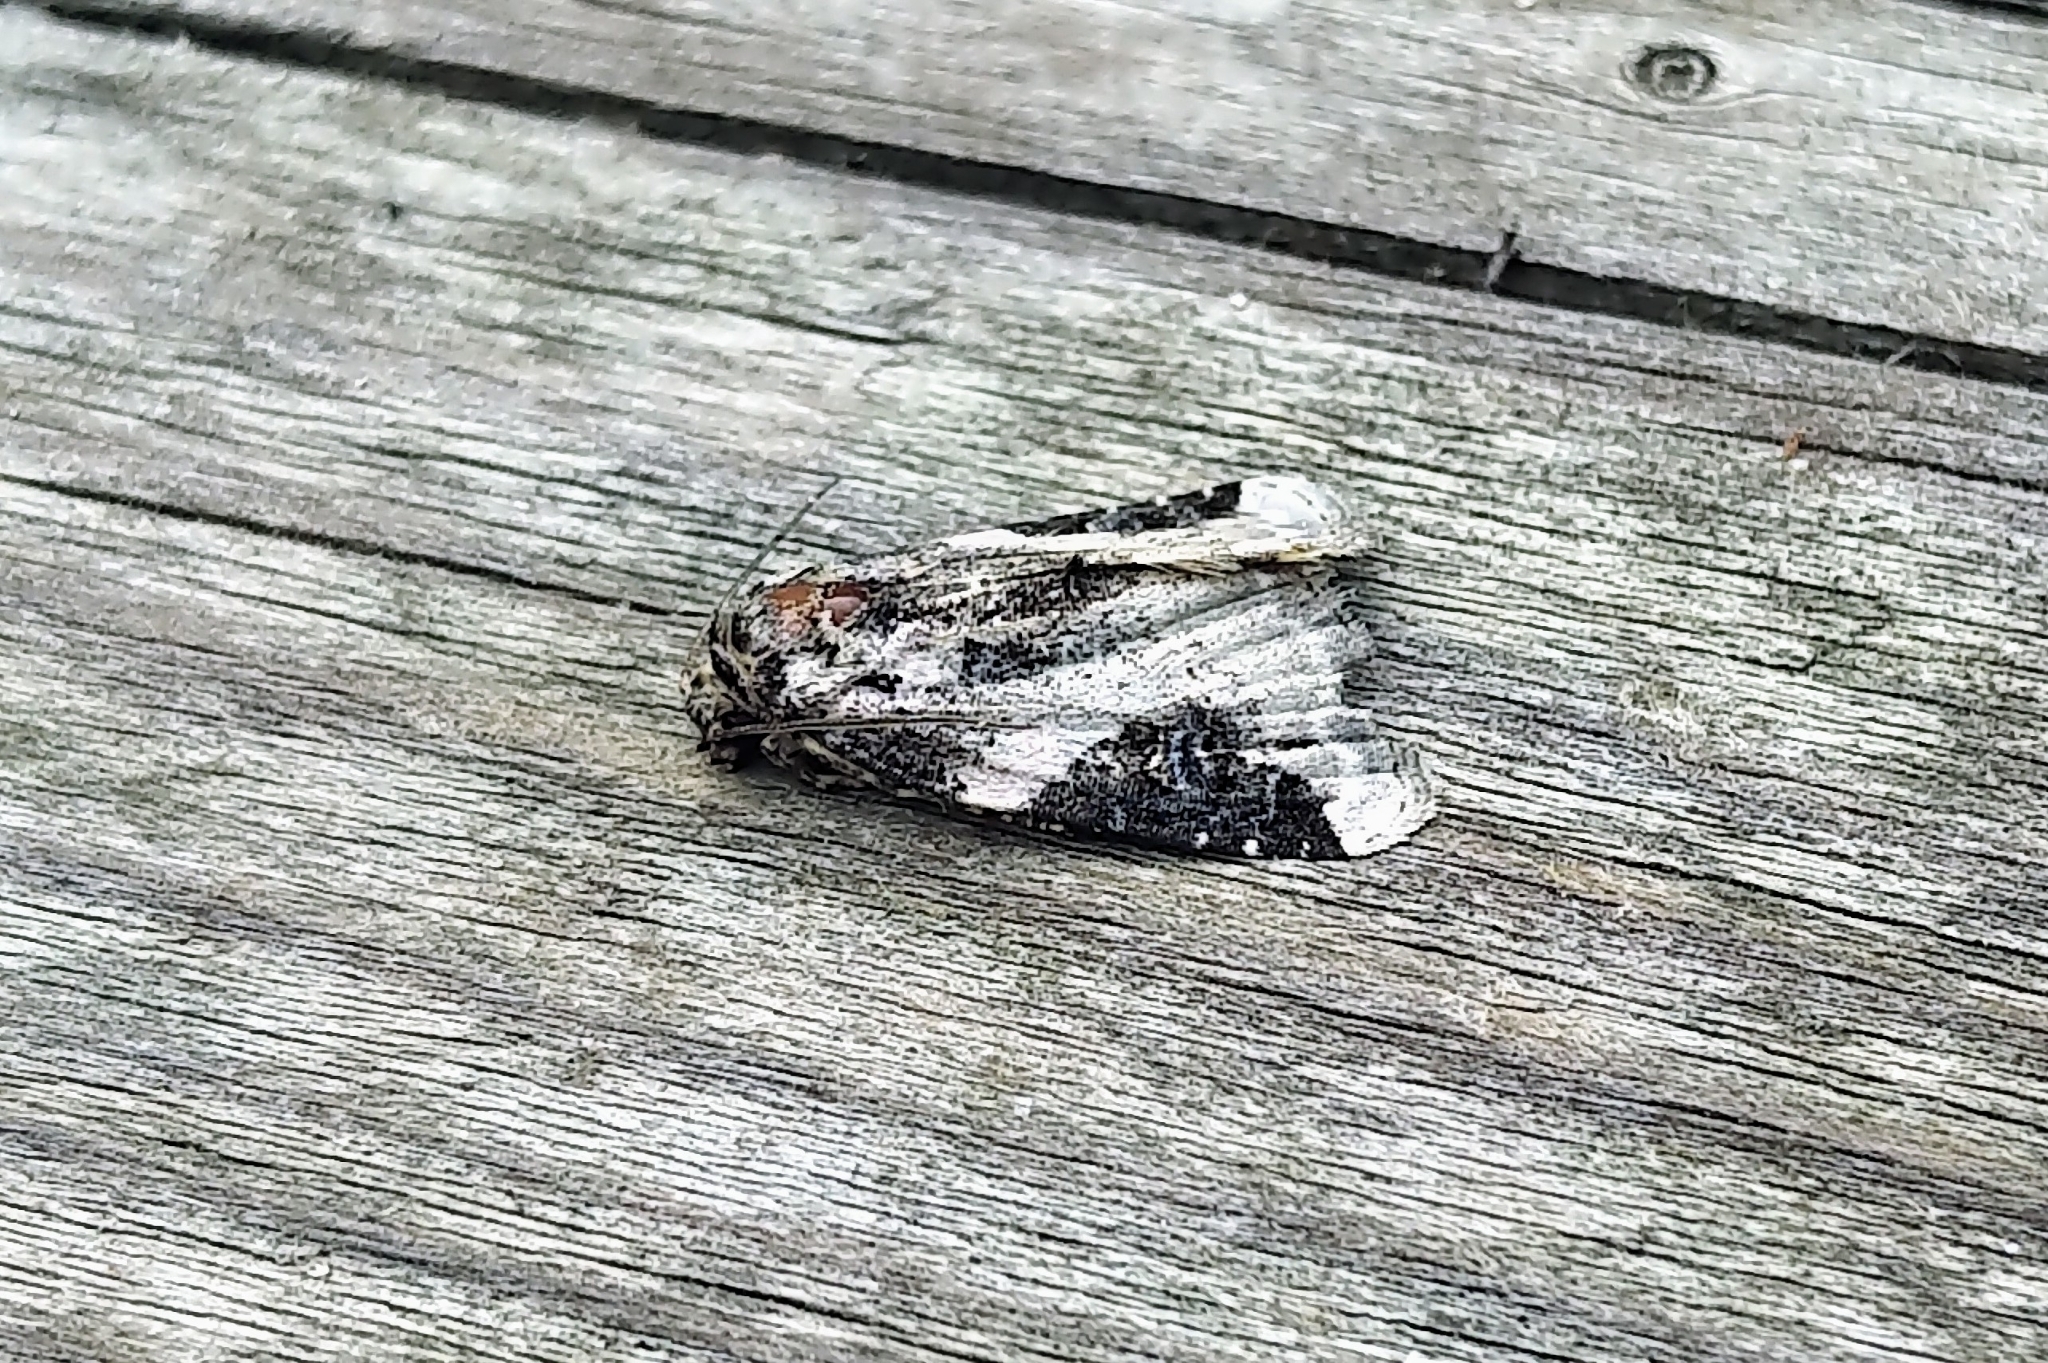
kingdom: Animalia
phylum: Arthropoda
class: Insecta
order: Lepidoptera
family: Noctuidae
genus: Pseudeustrotia
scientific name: Pseudeustrotia carneola
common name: Pink-barred lithacodia moth
